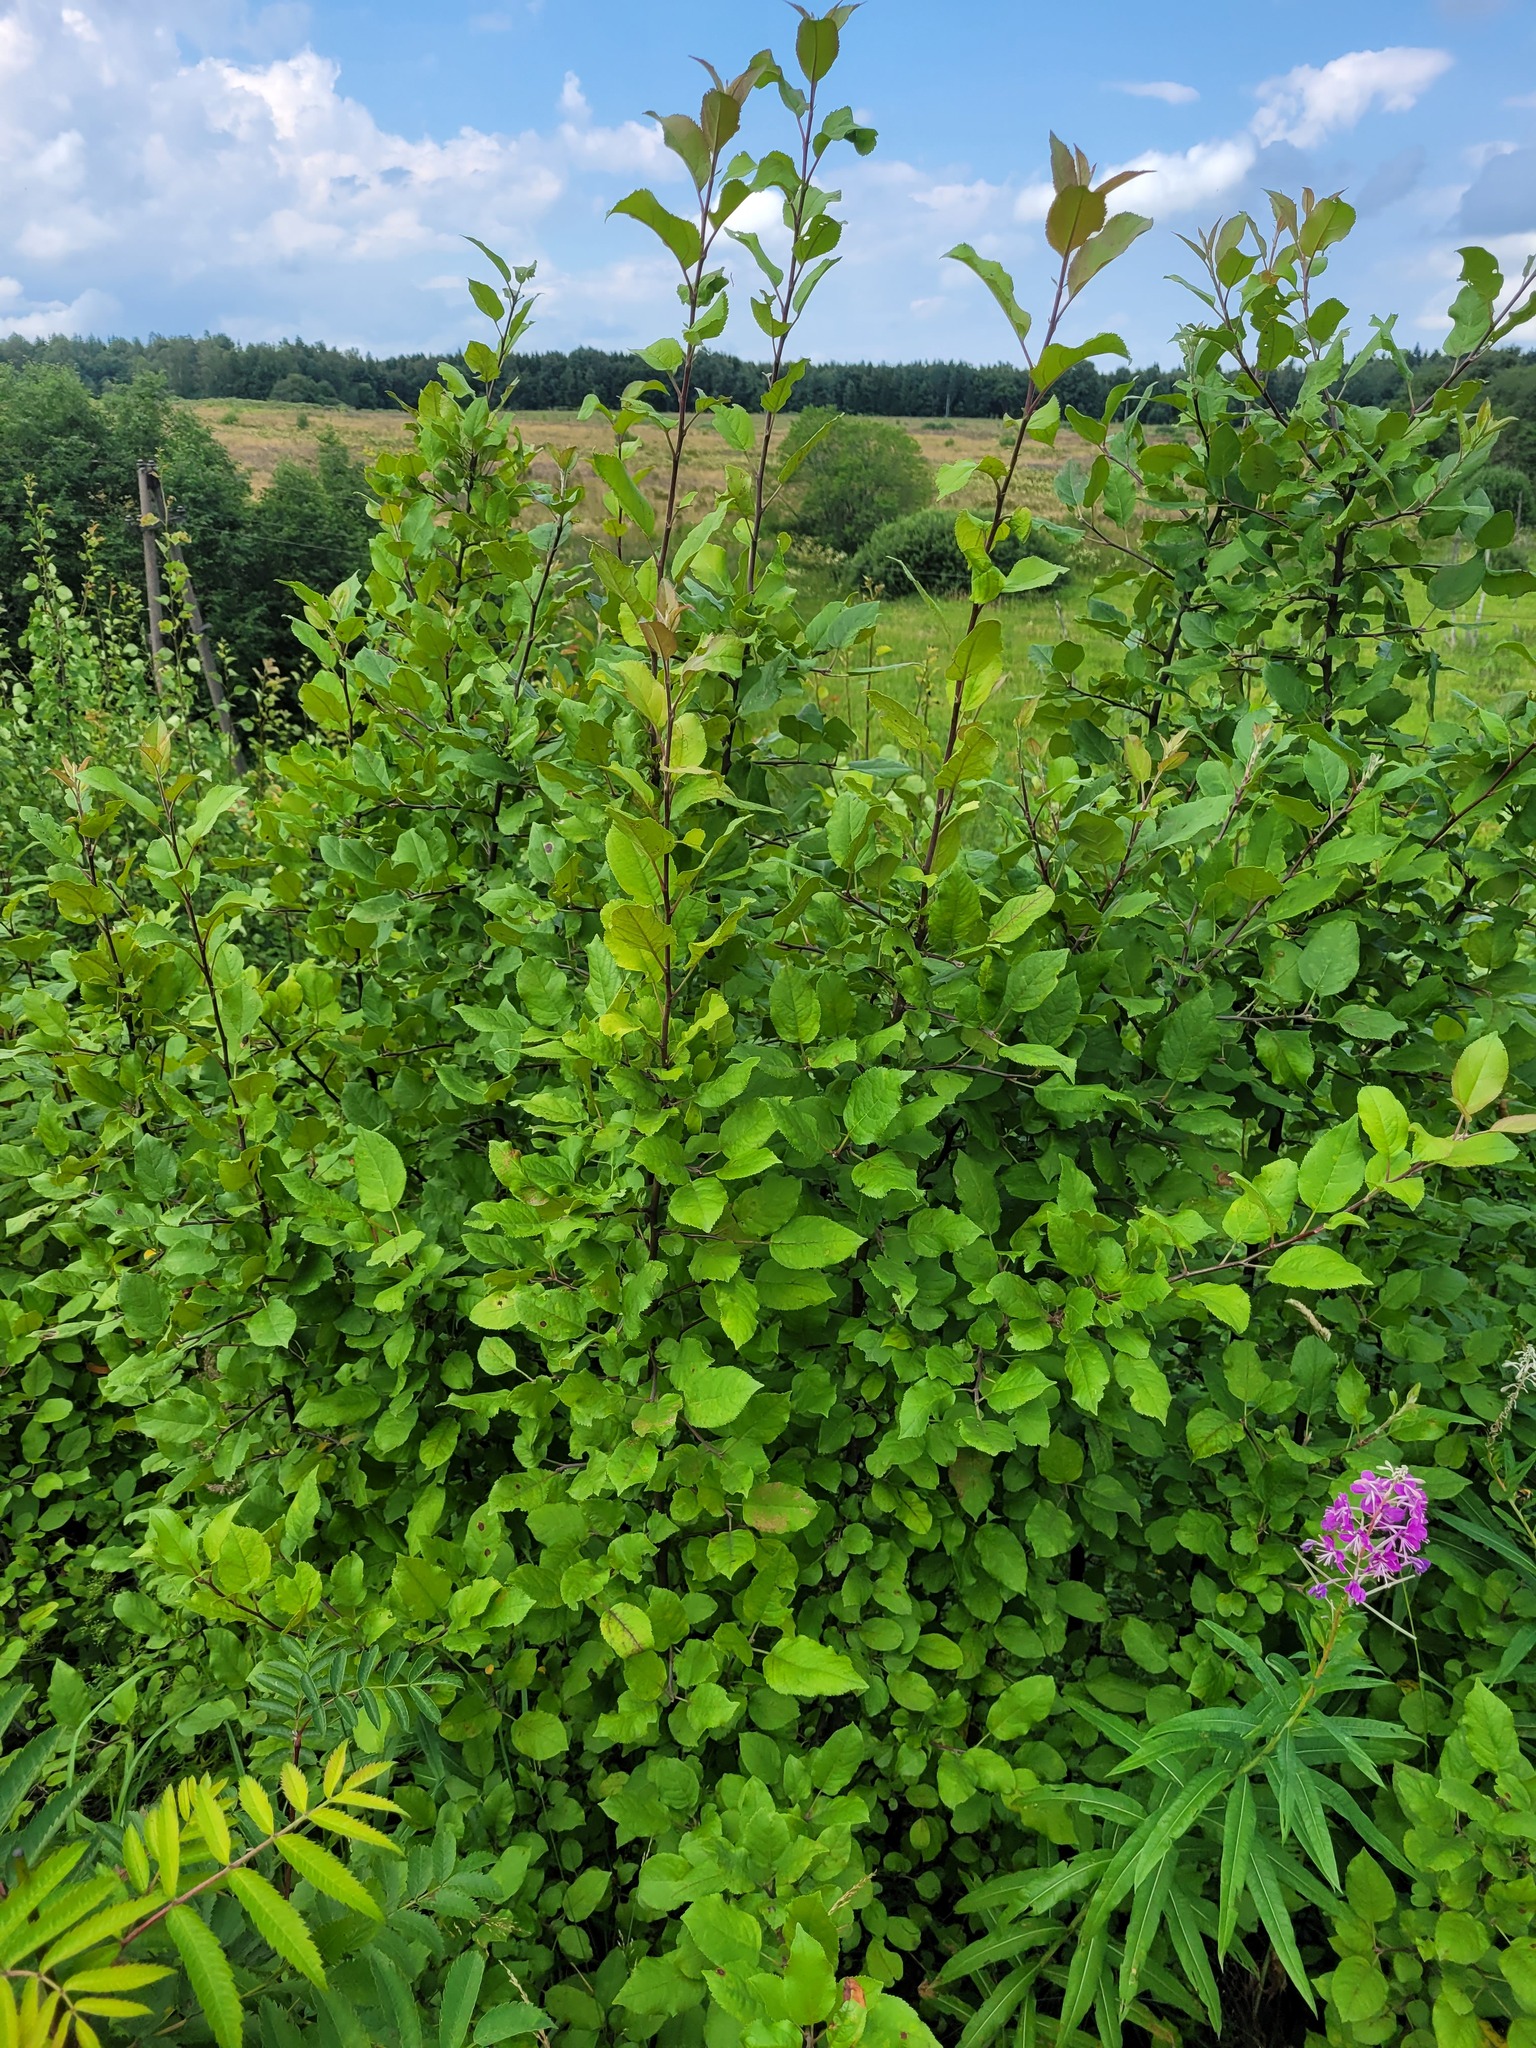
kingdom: Plantae
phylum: Tracheophyta
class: Magnoliopsida
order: Rosales
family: Rosaceae
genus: Malus
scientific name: Malus domestica
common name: Apple
